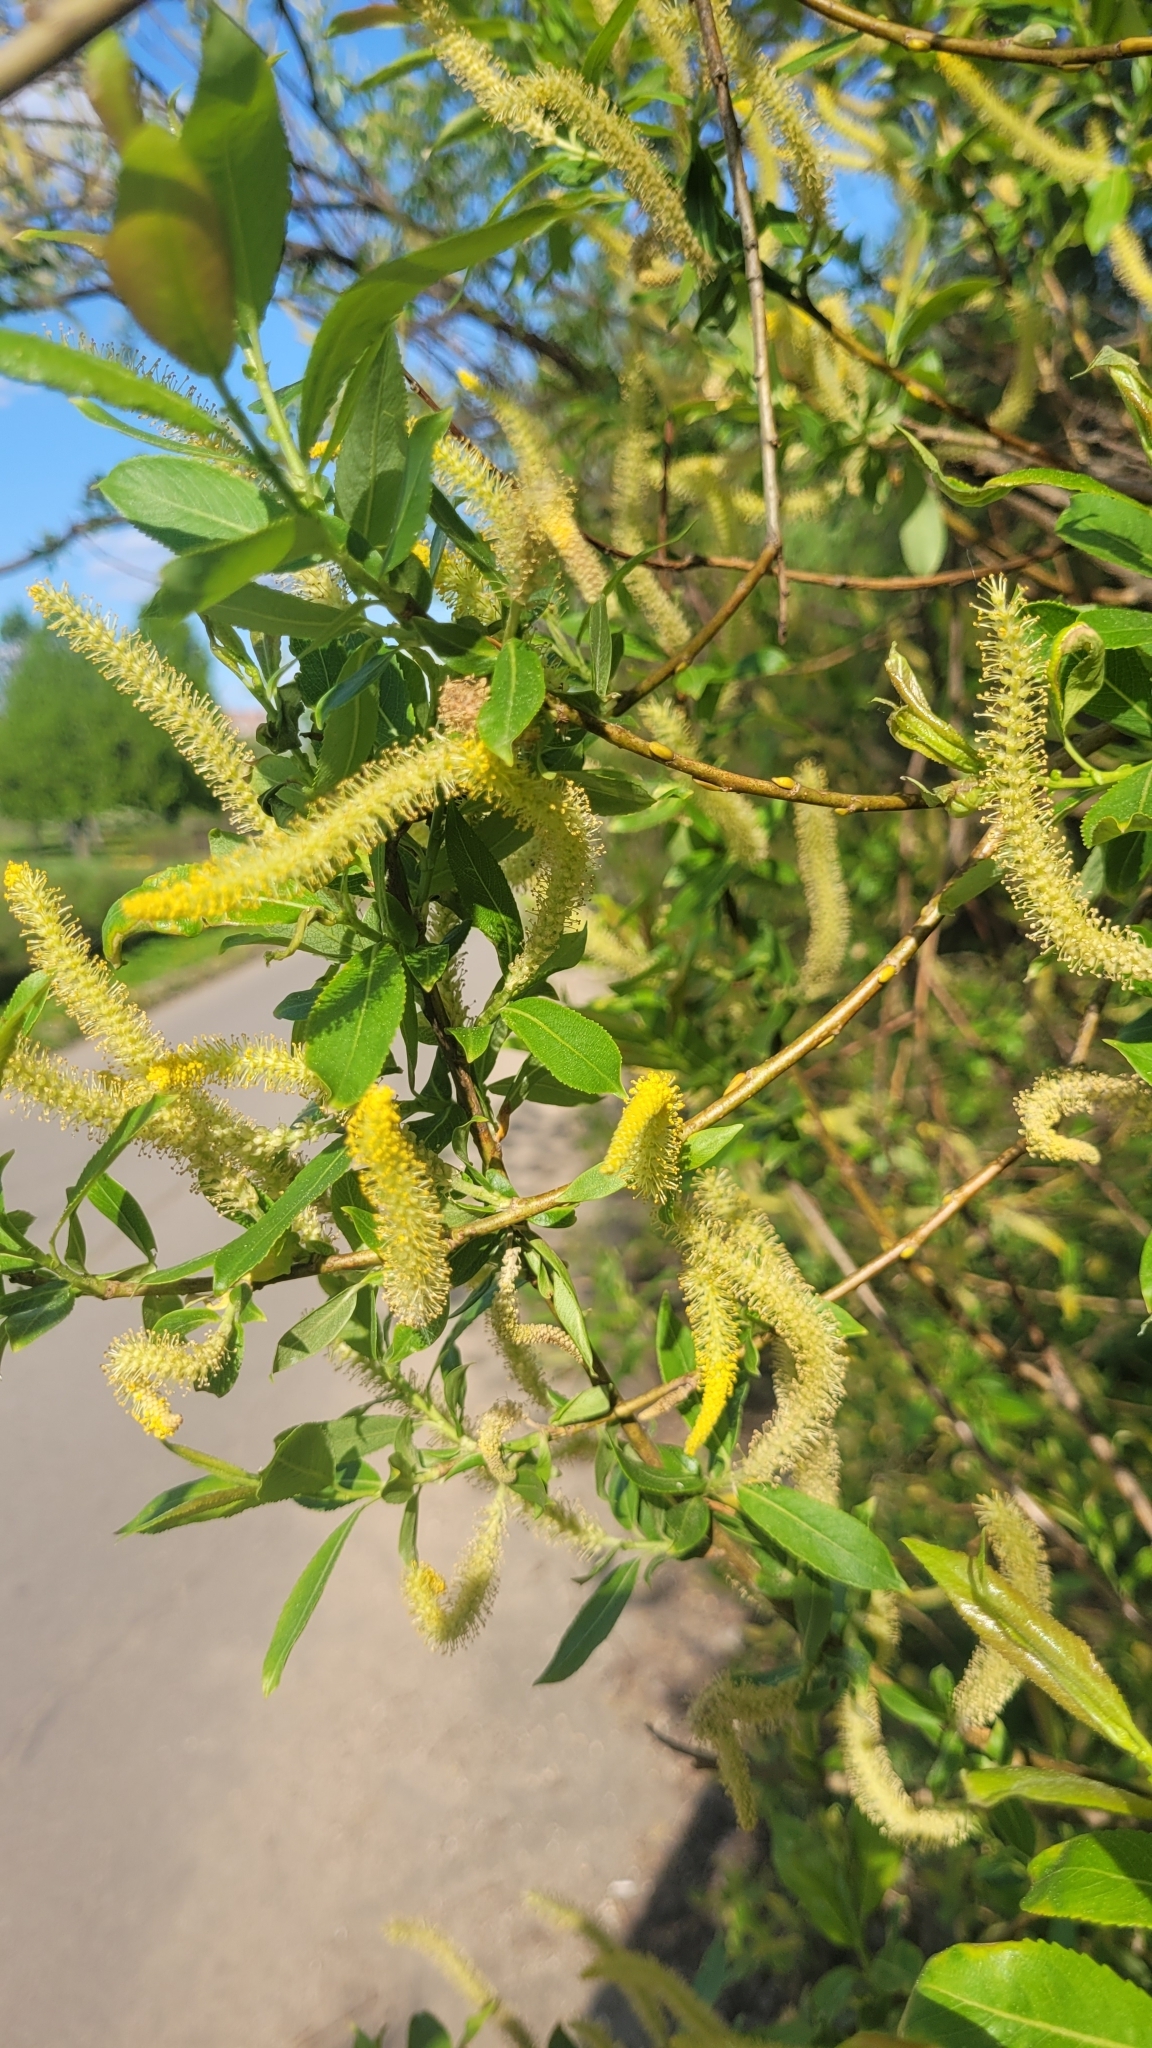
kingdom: Plantae
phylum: Tracheophyta
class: Magnoliopsida
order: Malpighiales
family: Salicaceae
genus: Salix
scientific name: Salix triandra
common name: Almond willow
